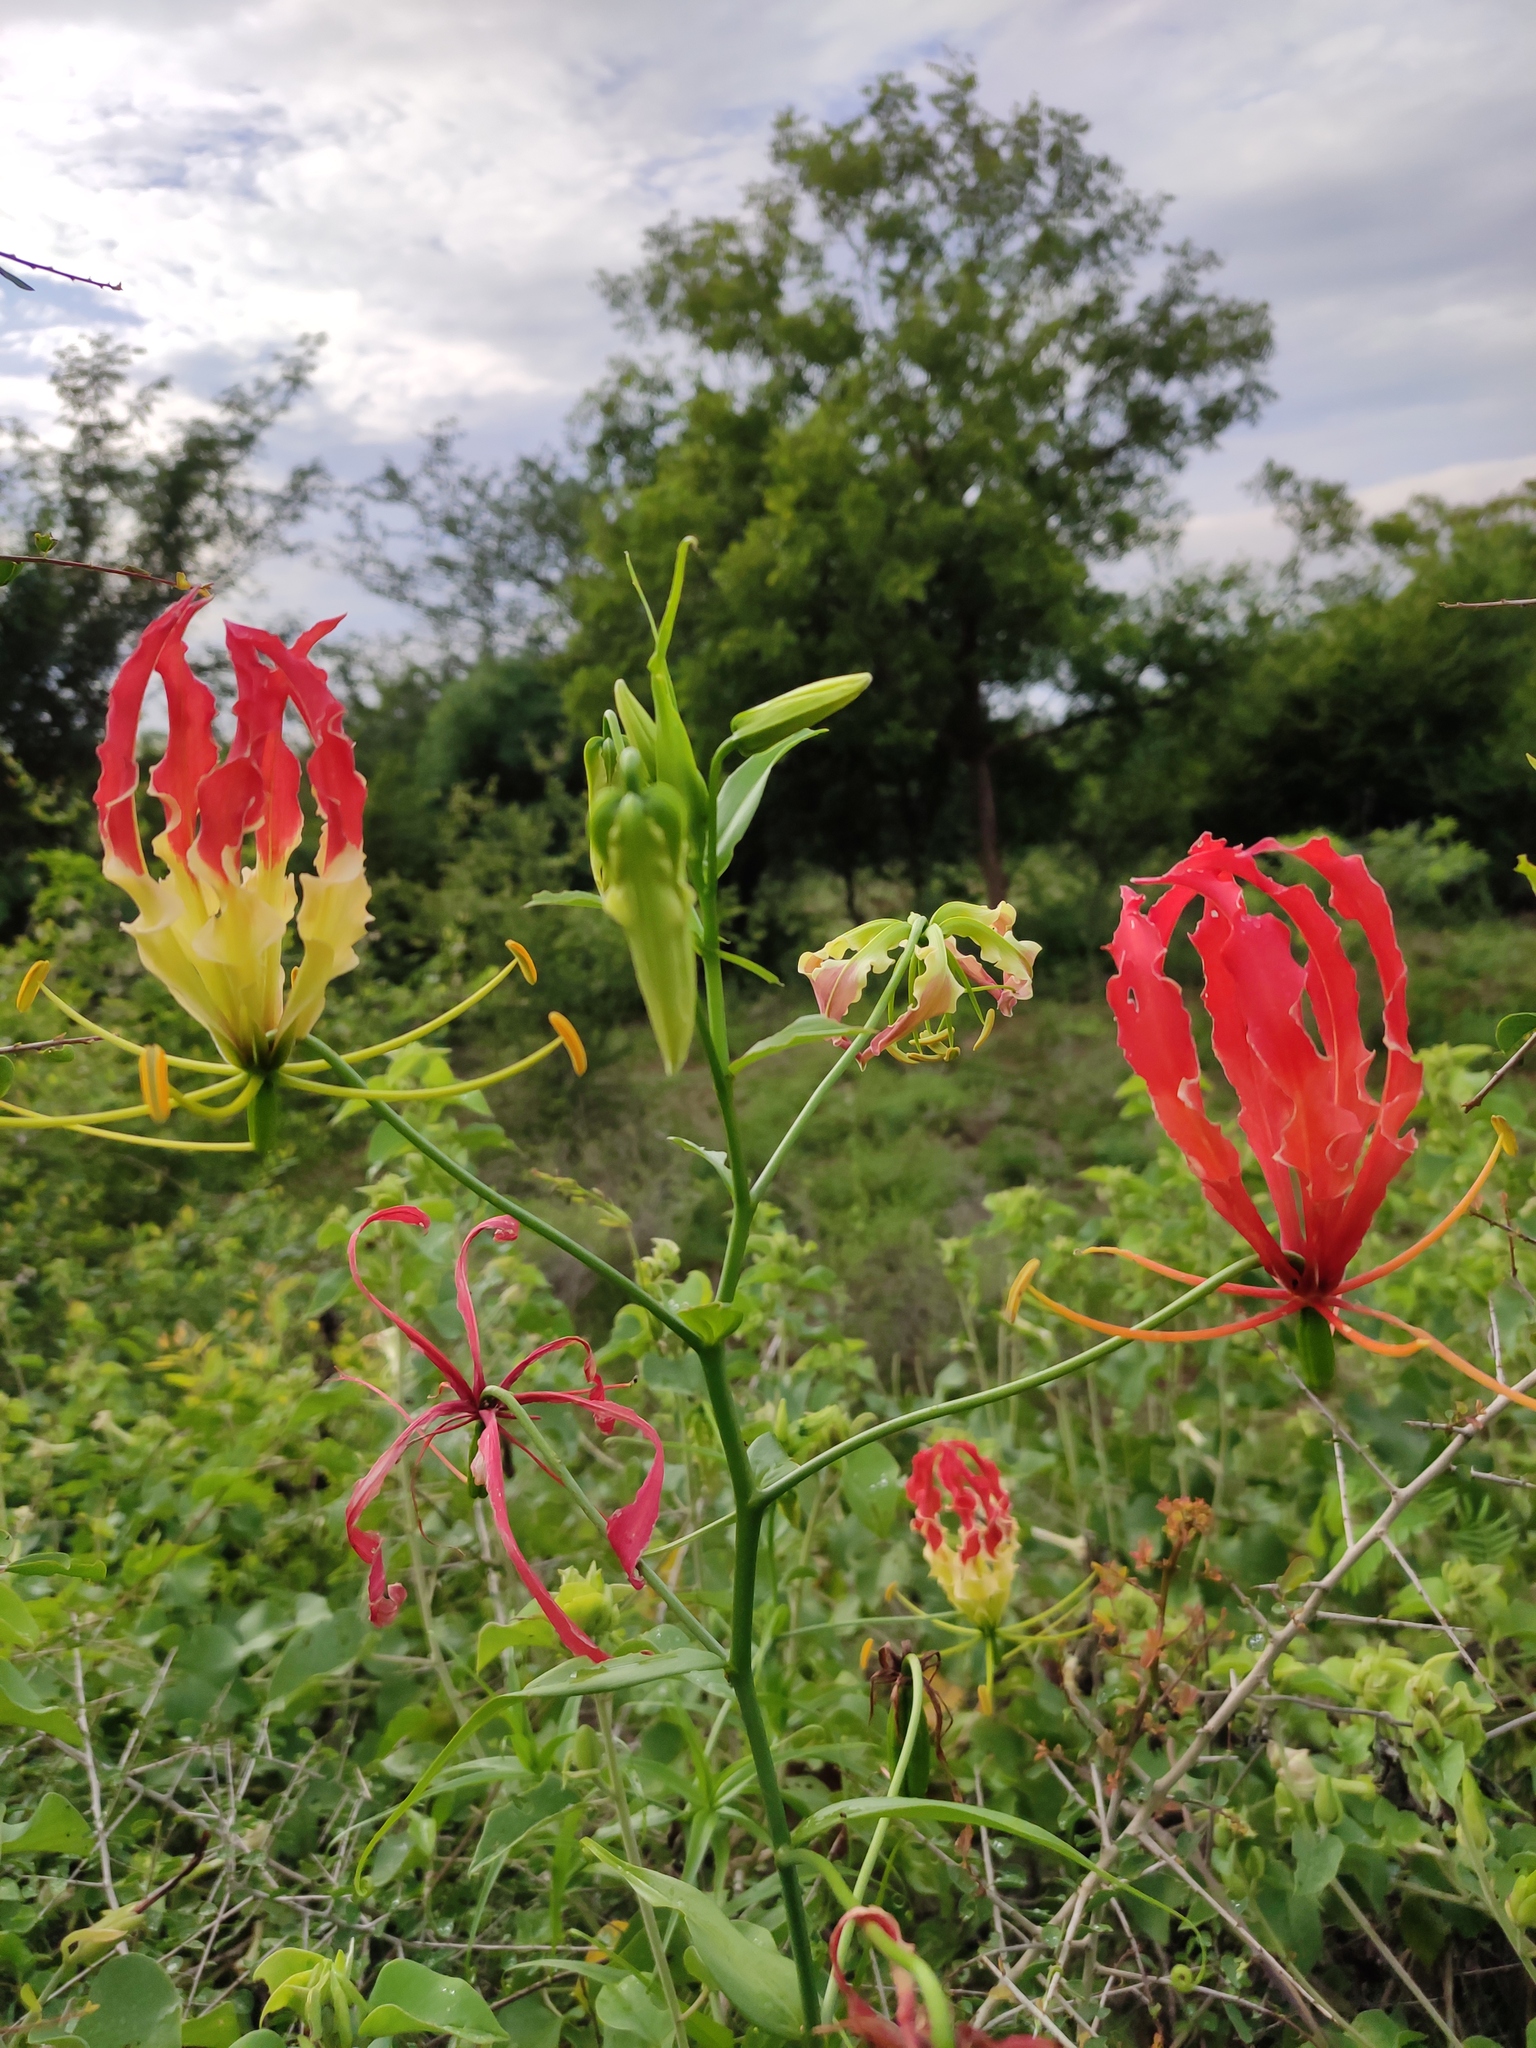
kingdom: Plantae
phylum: Tracheophyta
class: Liliopsida
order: Liliales
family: Colchicaceae
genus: Gloriosa
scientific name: Gloriosa superba
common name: Flame lily
